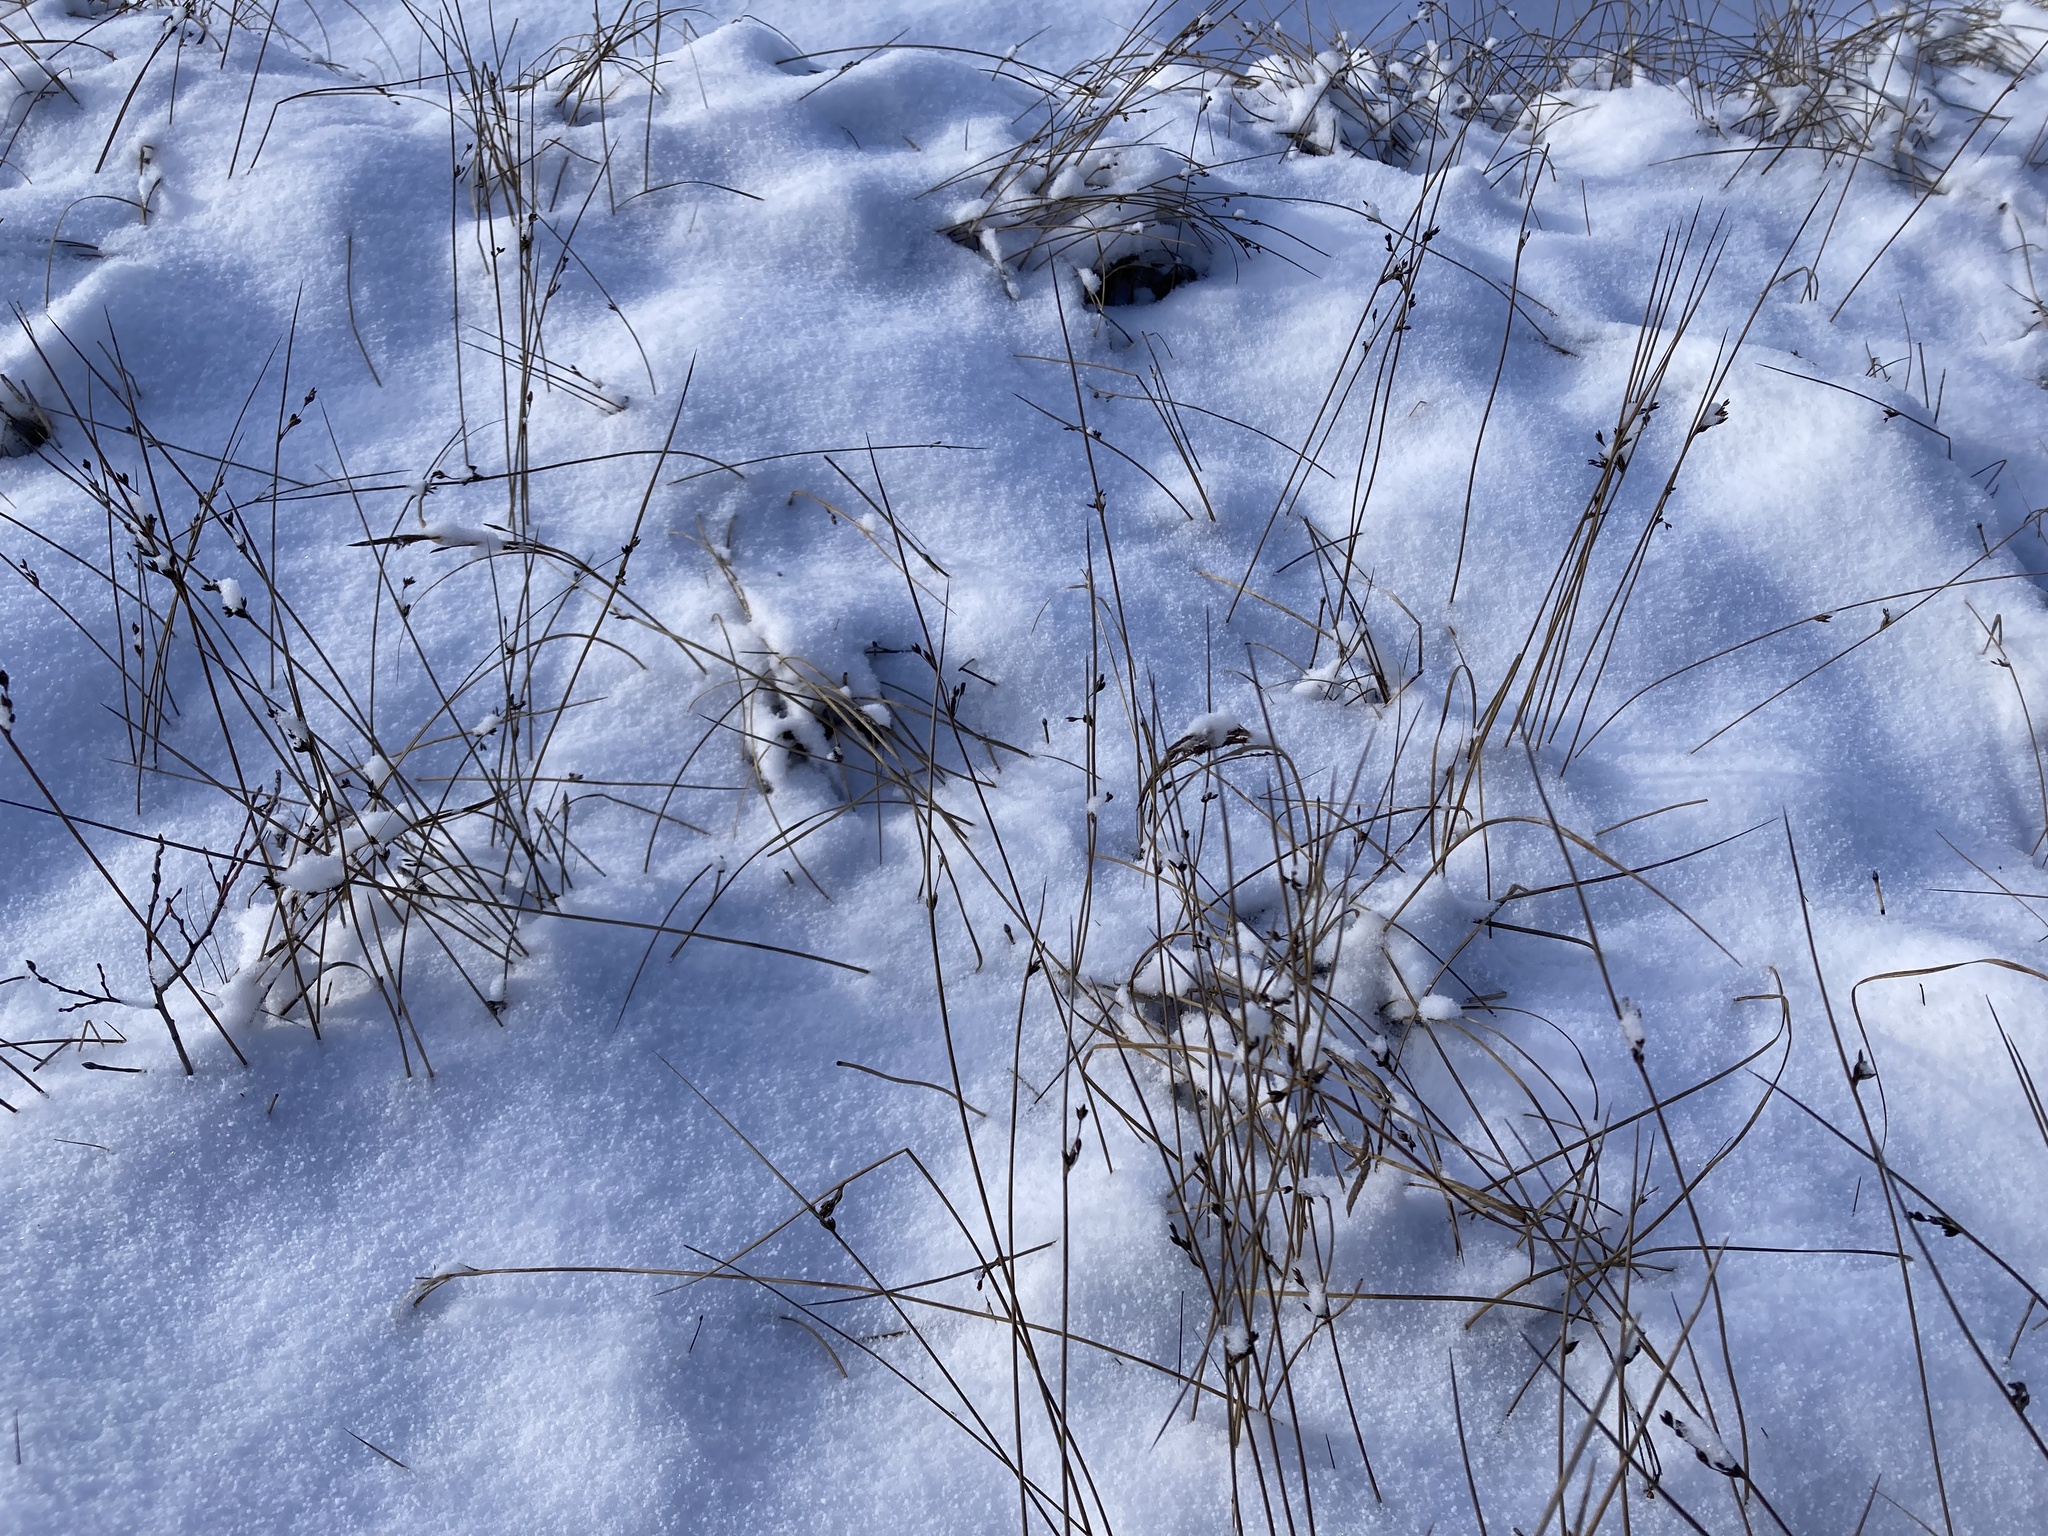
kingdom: Plantae
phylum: Tracheophyta
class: Liliopsida
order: Poales
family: Juncaceae
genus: Juncus
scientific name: Juncus balticus
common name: Baltic rush
